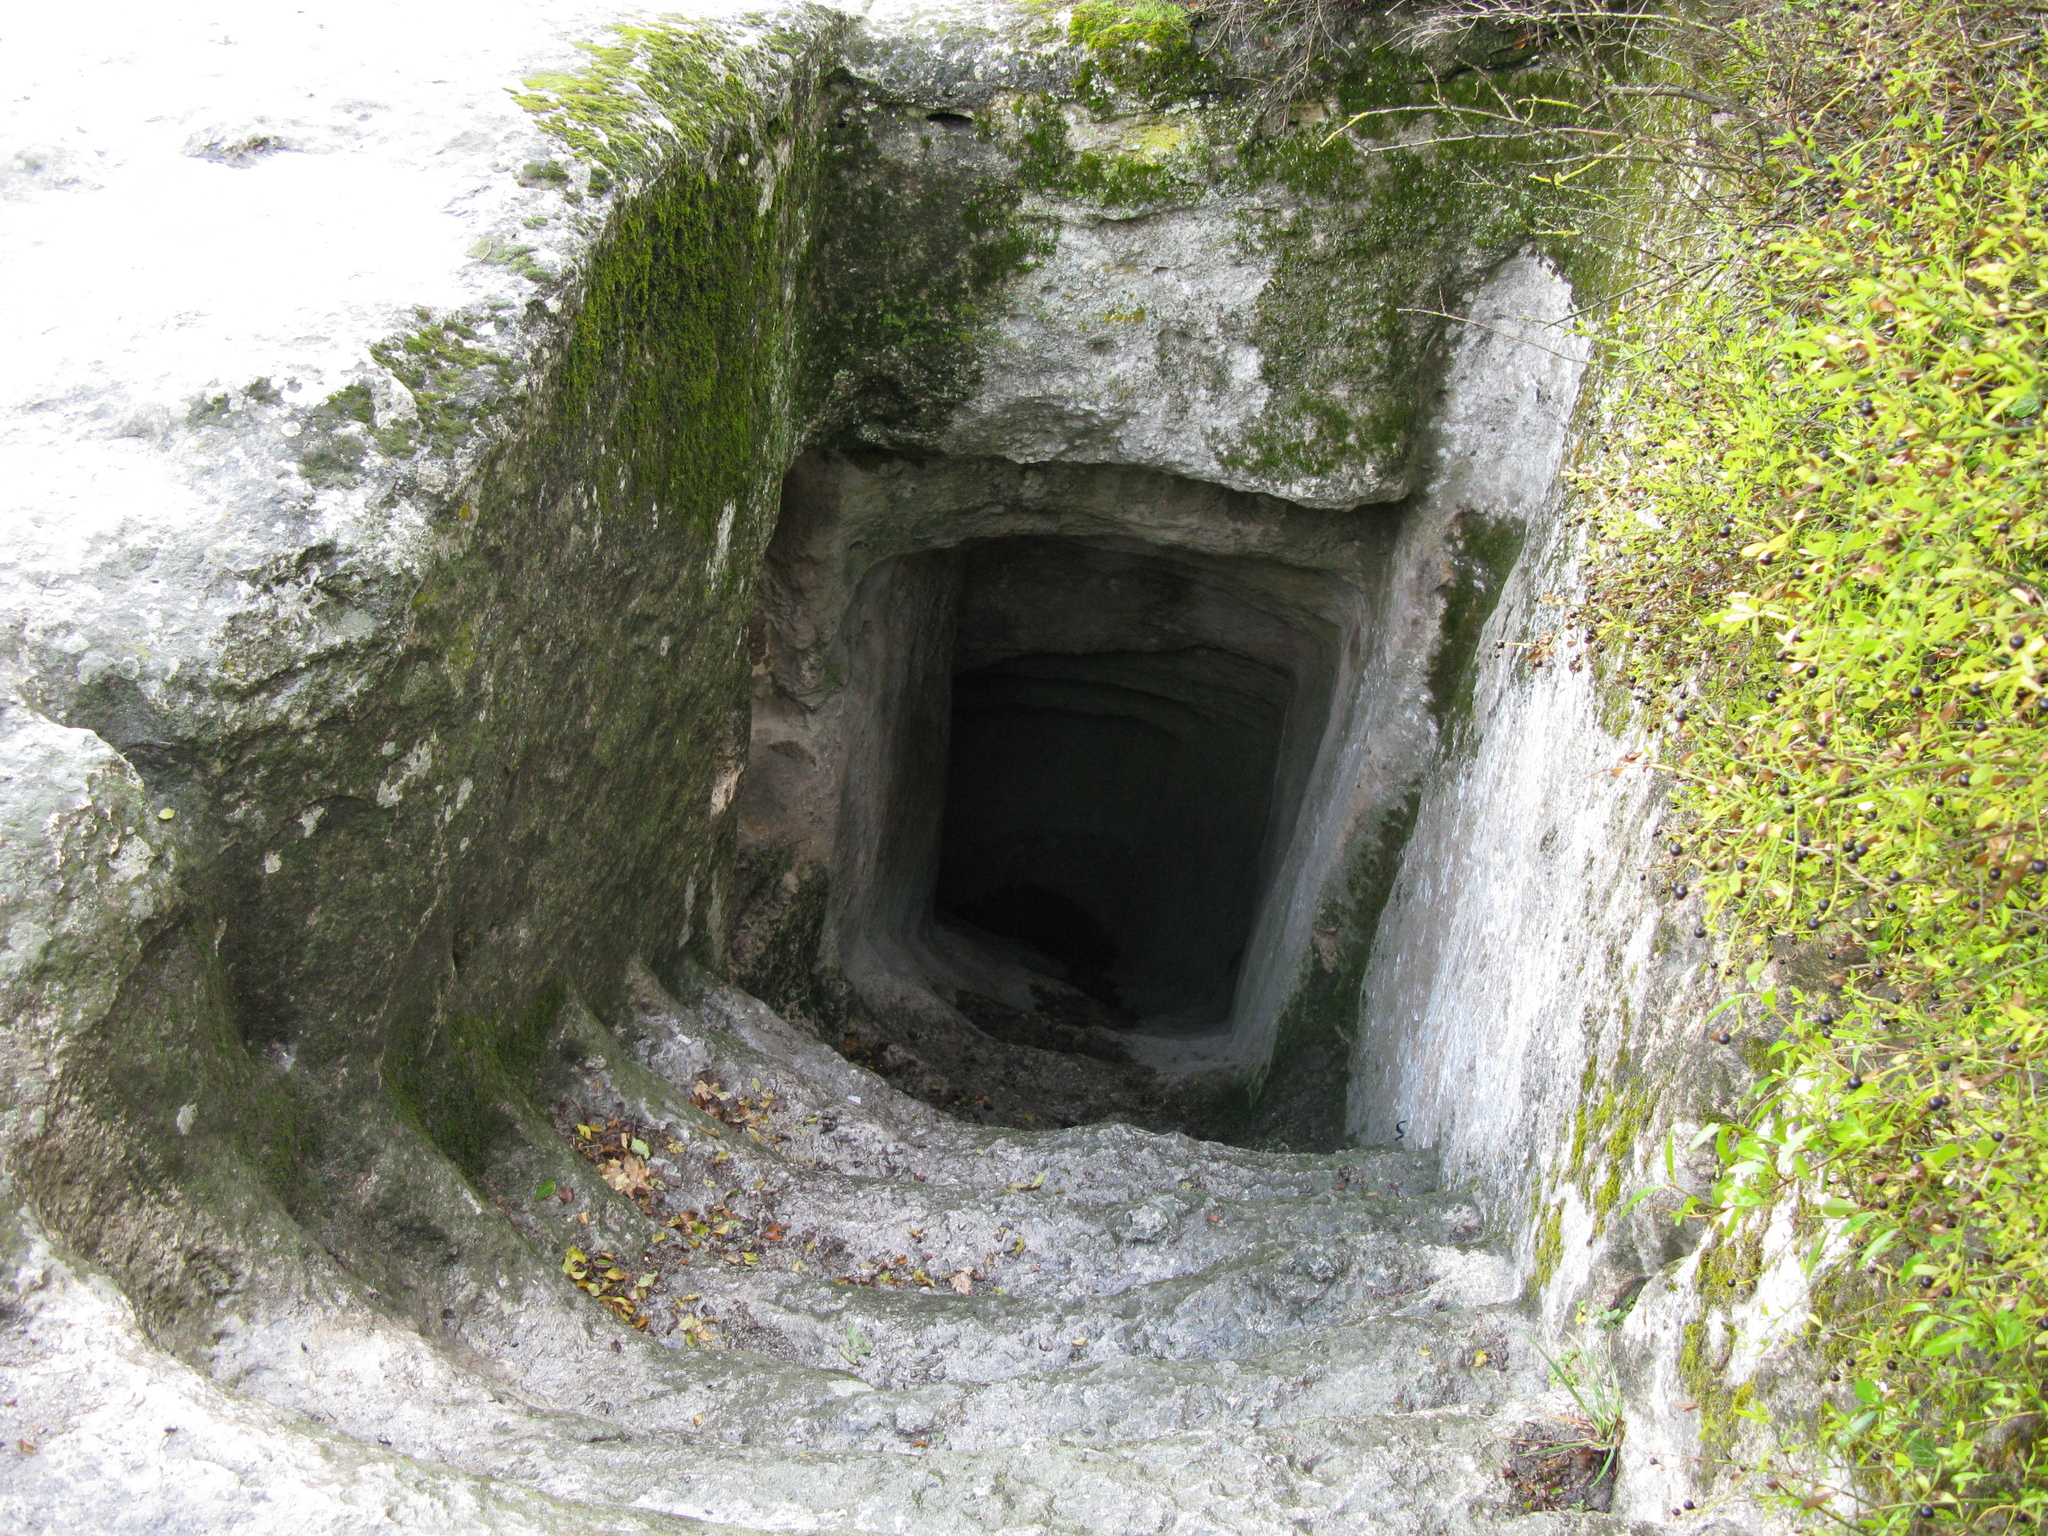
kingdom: Plantae
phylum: Tracheophyta
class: Magnoliopsida
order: Lamiales
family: Oleaceae
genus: Ligustrum
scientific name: Ligustrum vulgare
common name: Wild privet
